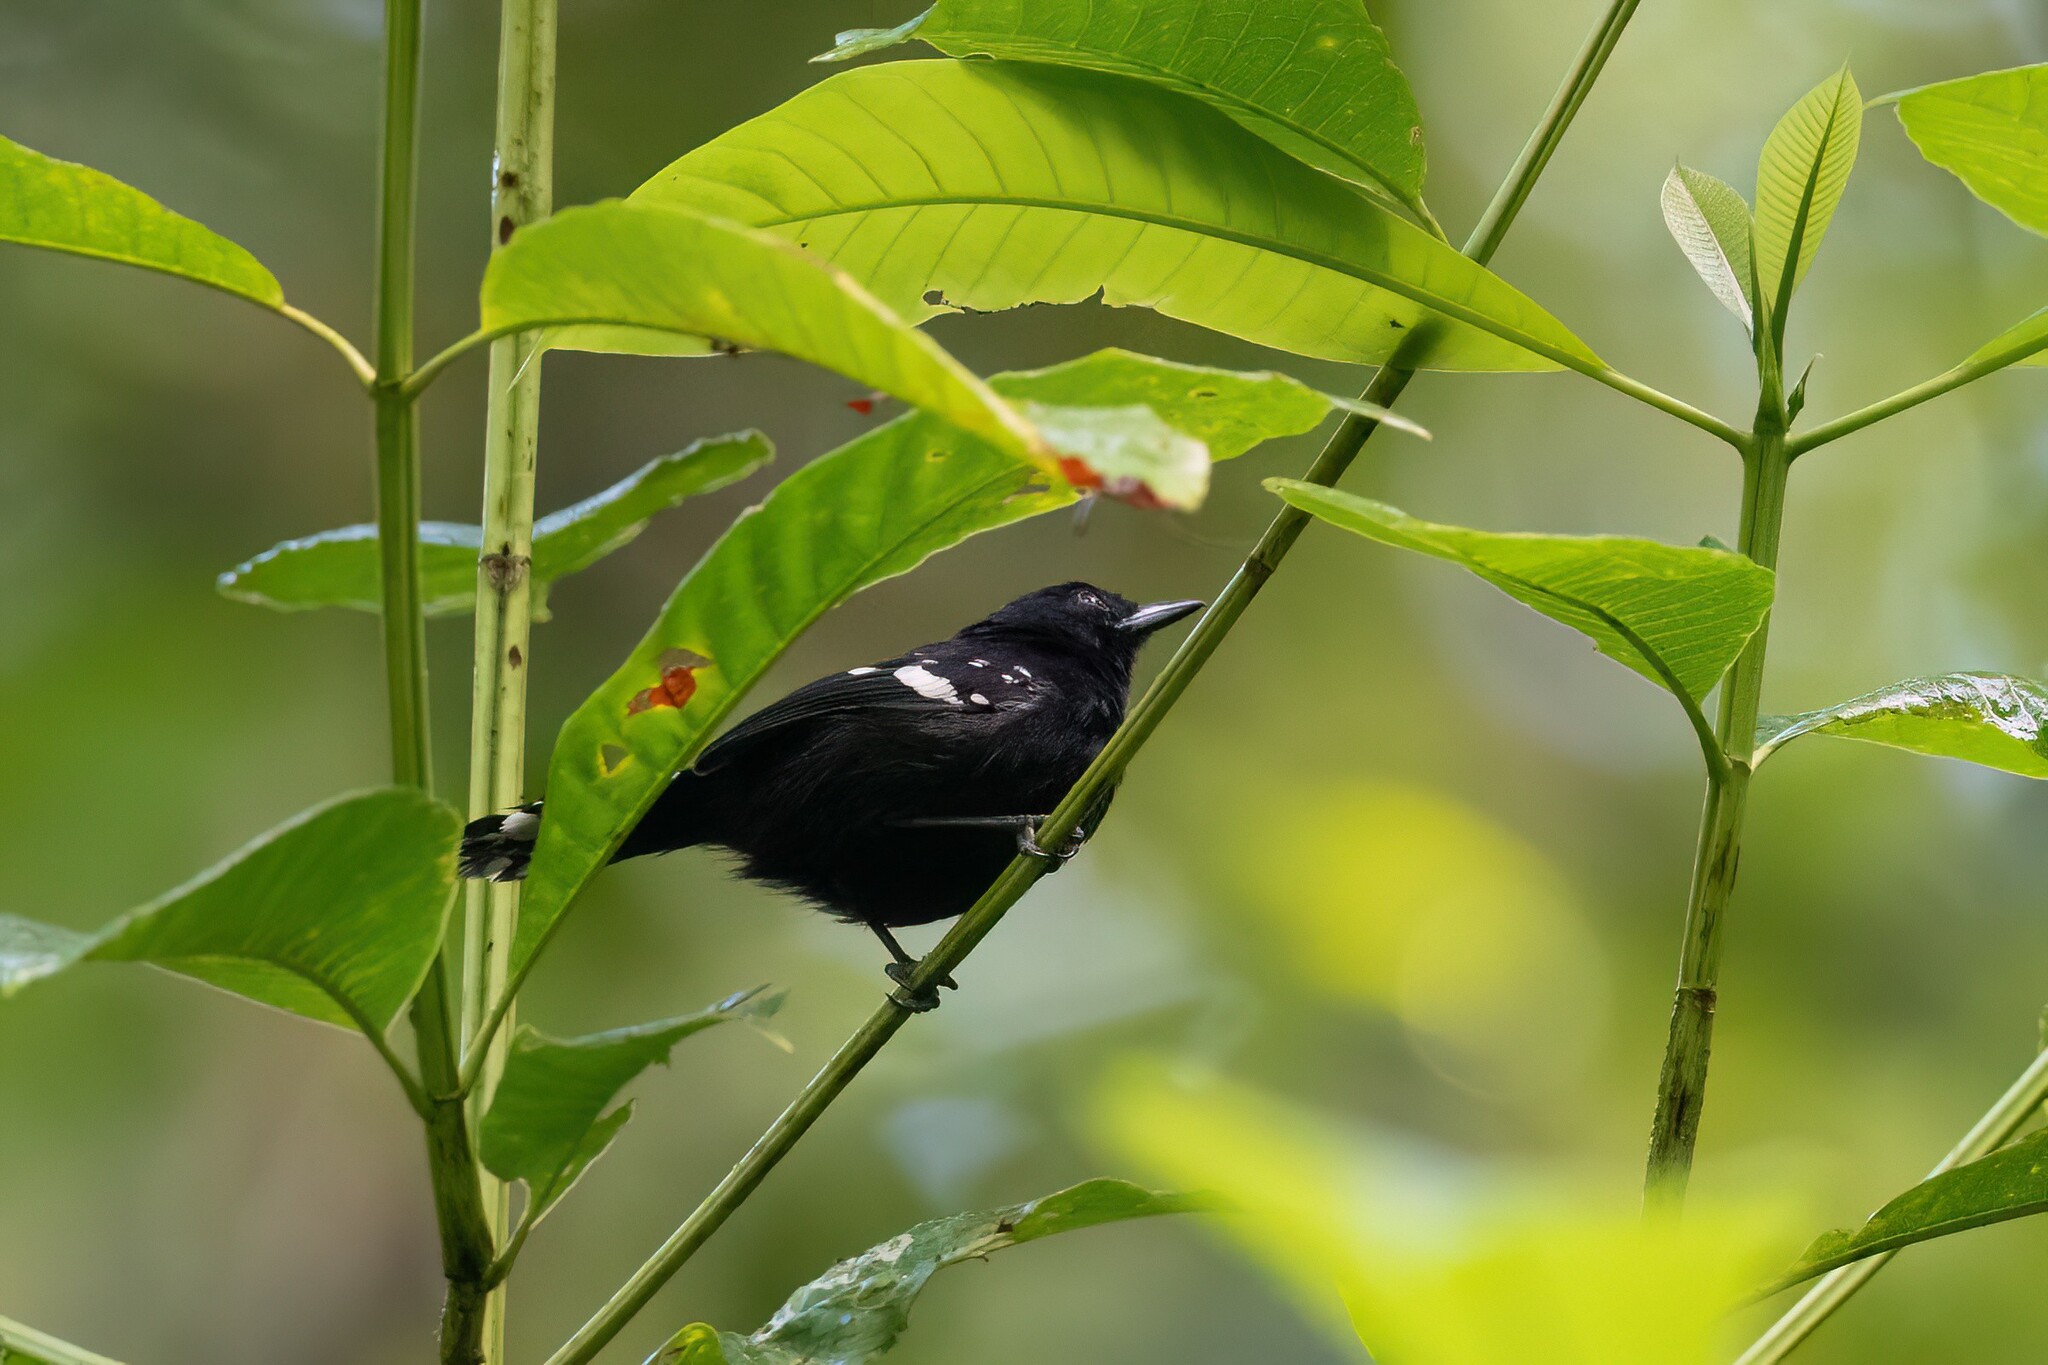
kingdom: Animalia
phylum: Chordata
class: Aves
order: Passeriformes
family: Thamnophilidae
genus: Microrhopias
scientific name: Microrhopias quixensis
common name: Dot-winged antwren
